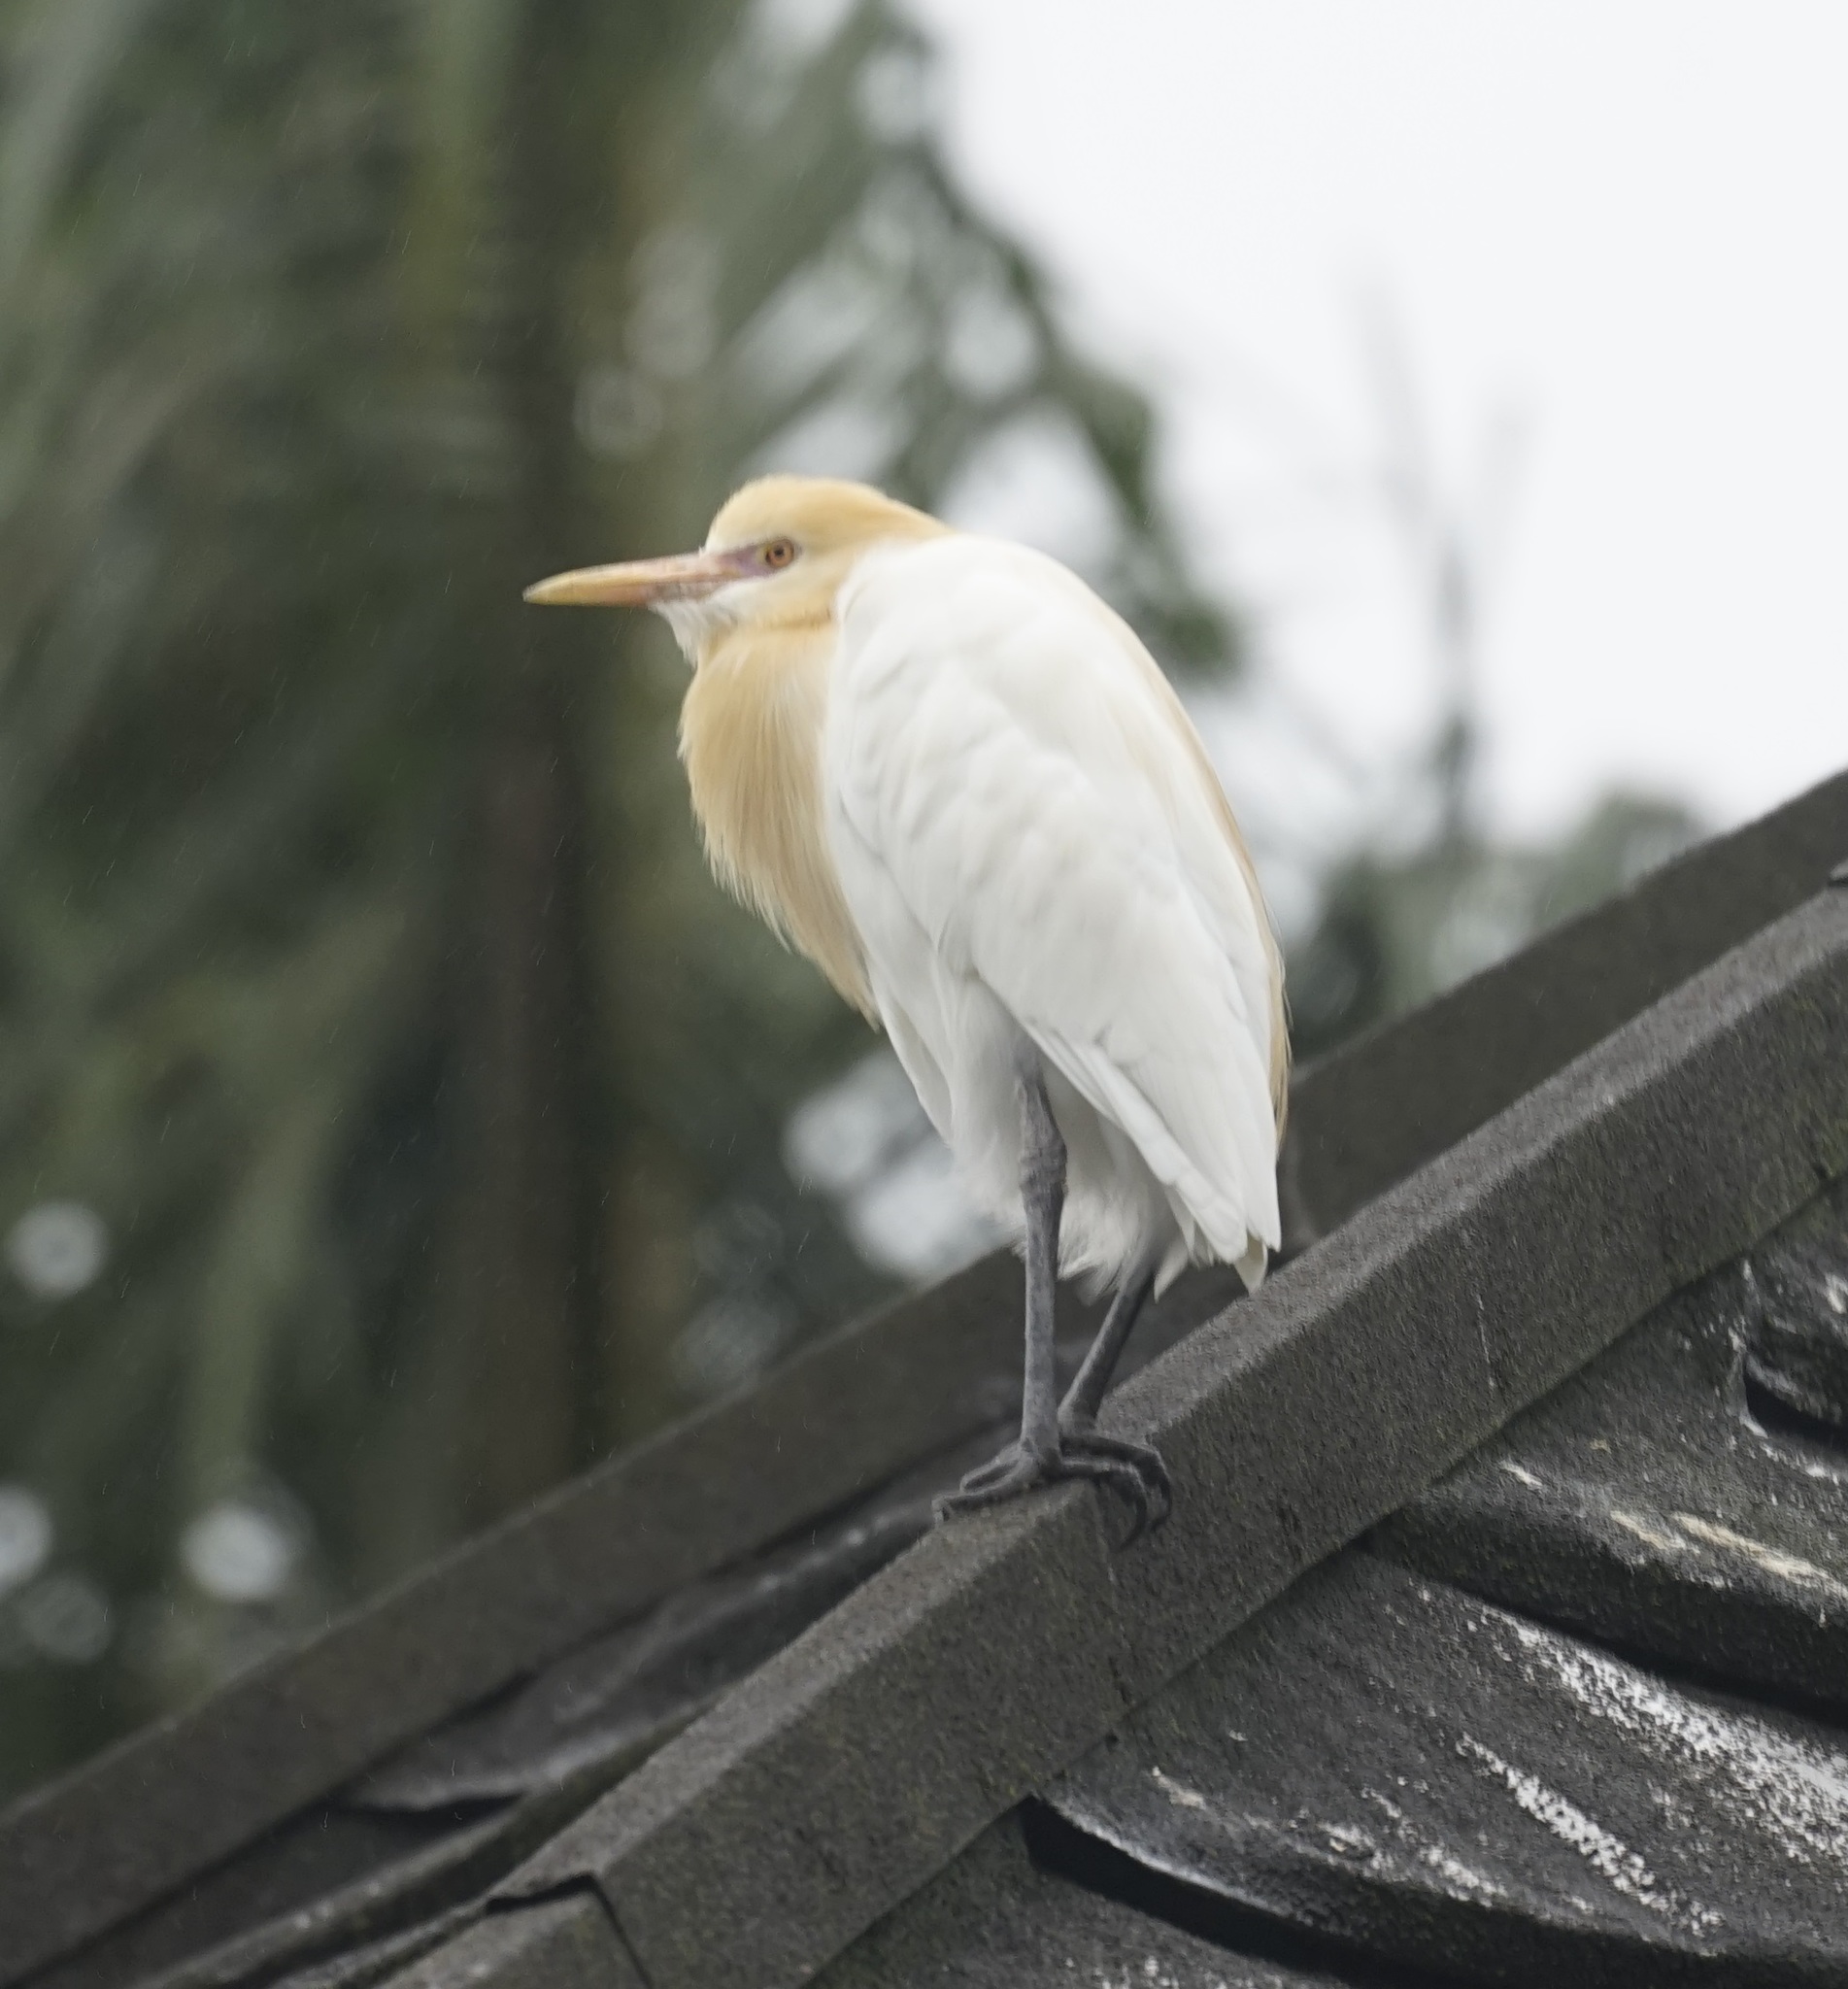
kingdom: Animalia
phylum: Chordata
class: Aves
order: Pelecaniformes
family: Ardeidae
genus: Bubulcus
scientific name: Bubulcus coromandus
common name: Eastern cattle egret
